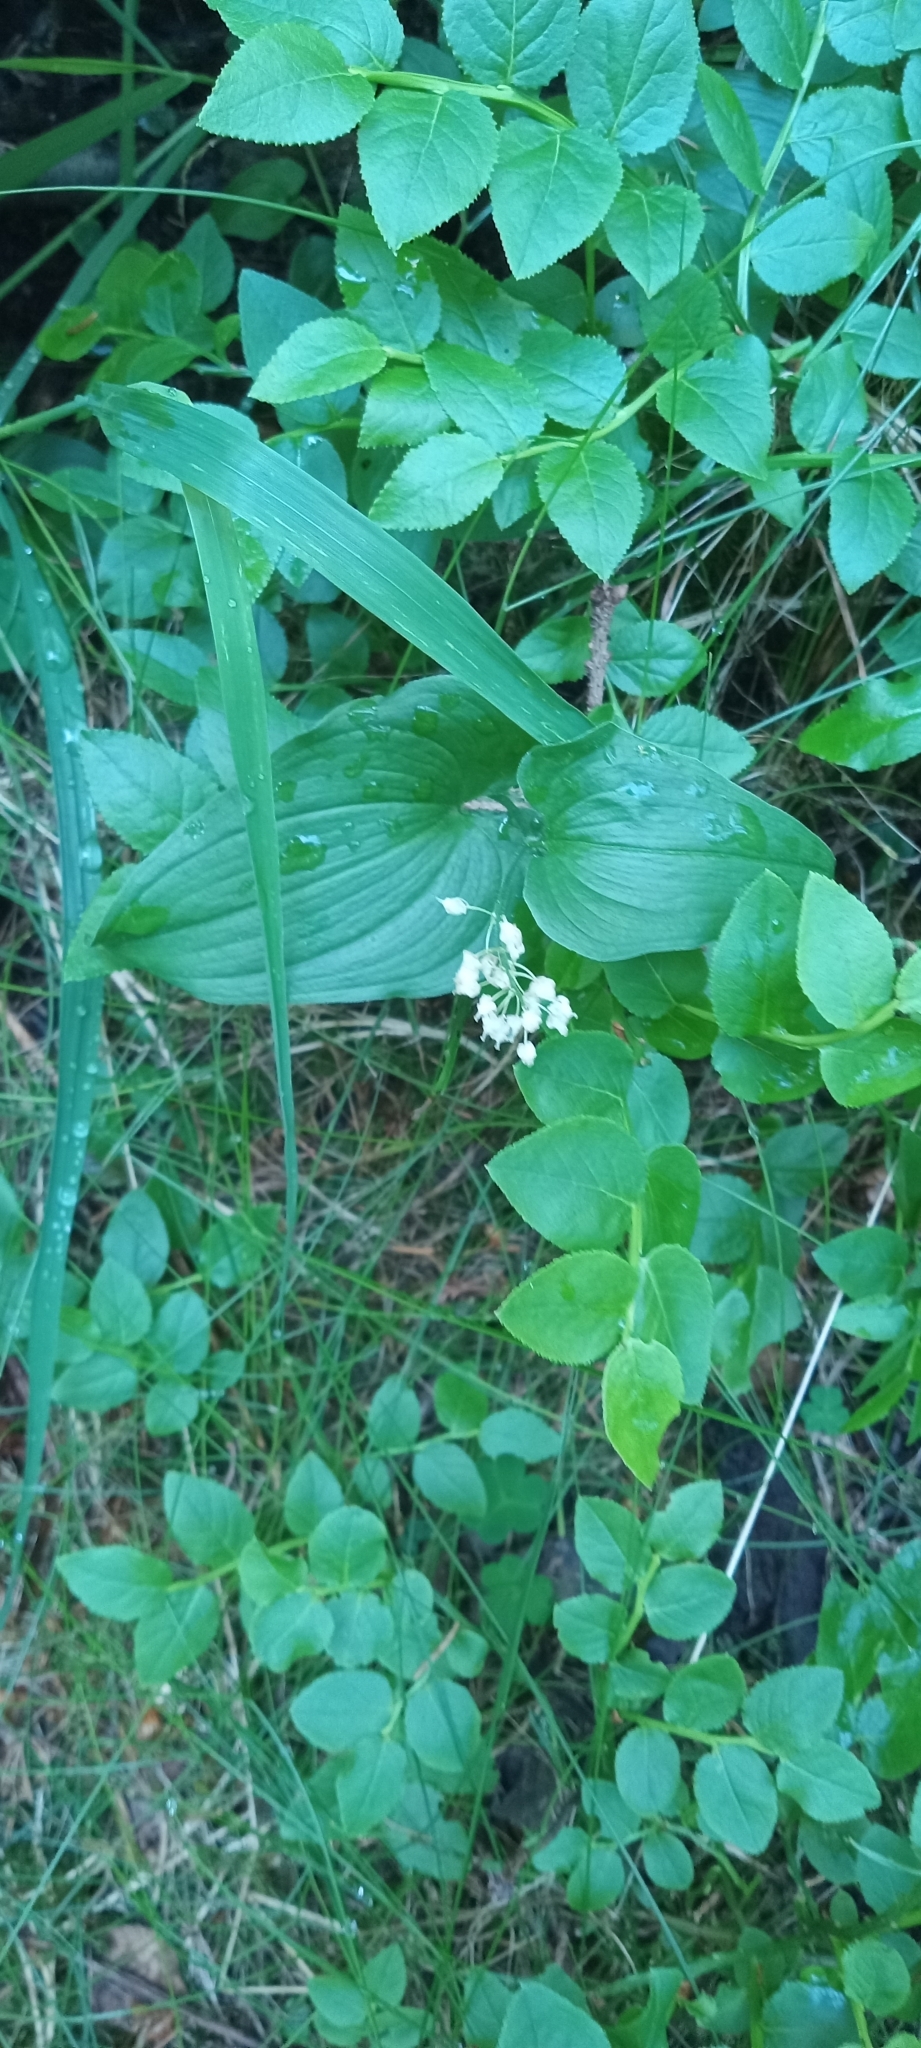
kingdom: Plantae
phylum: Tracheophyta
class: Liliopsida
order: Asparagales
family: Asparagaceae
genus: Maianthemum
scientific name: Maianthemum bifolium
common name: May lily
